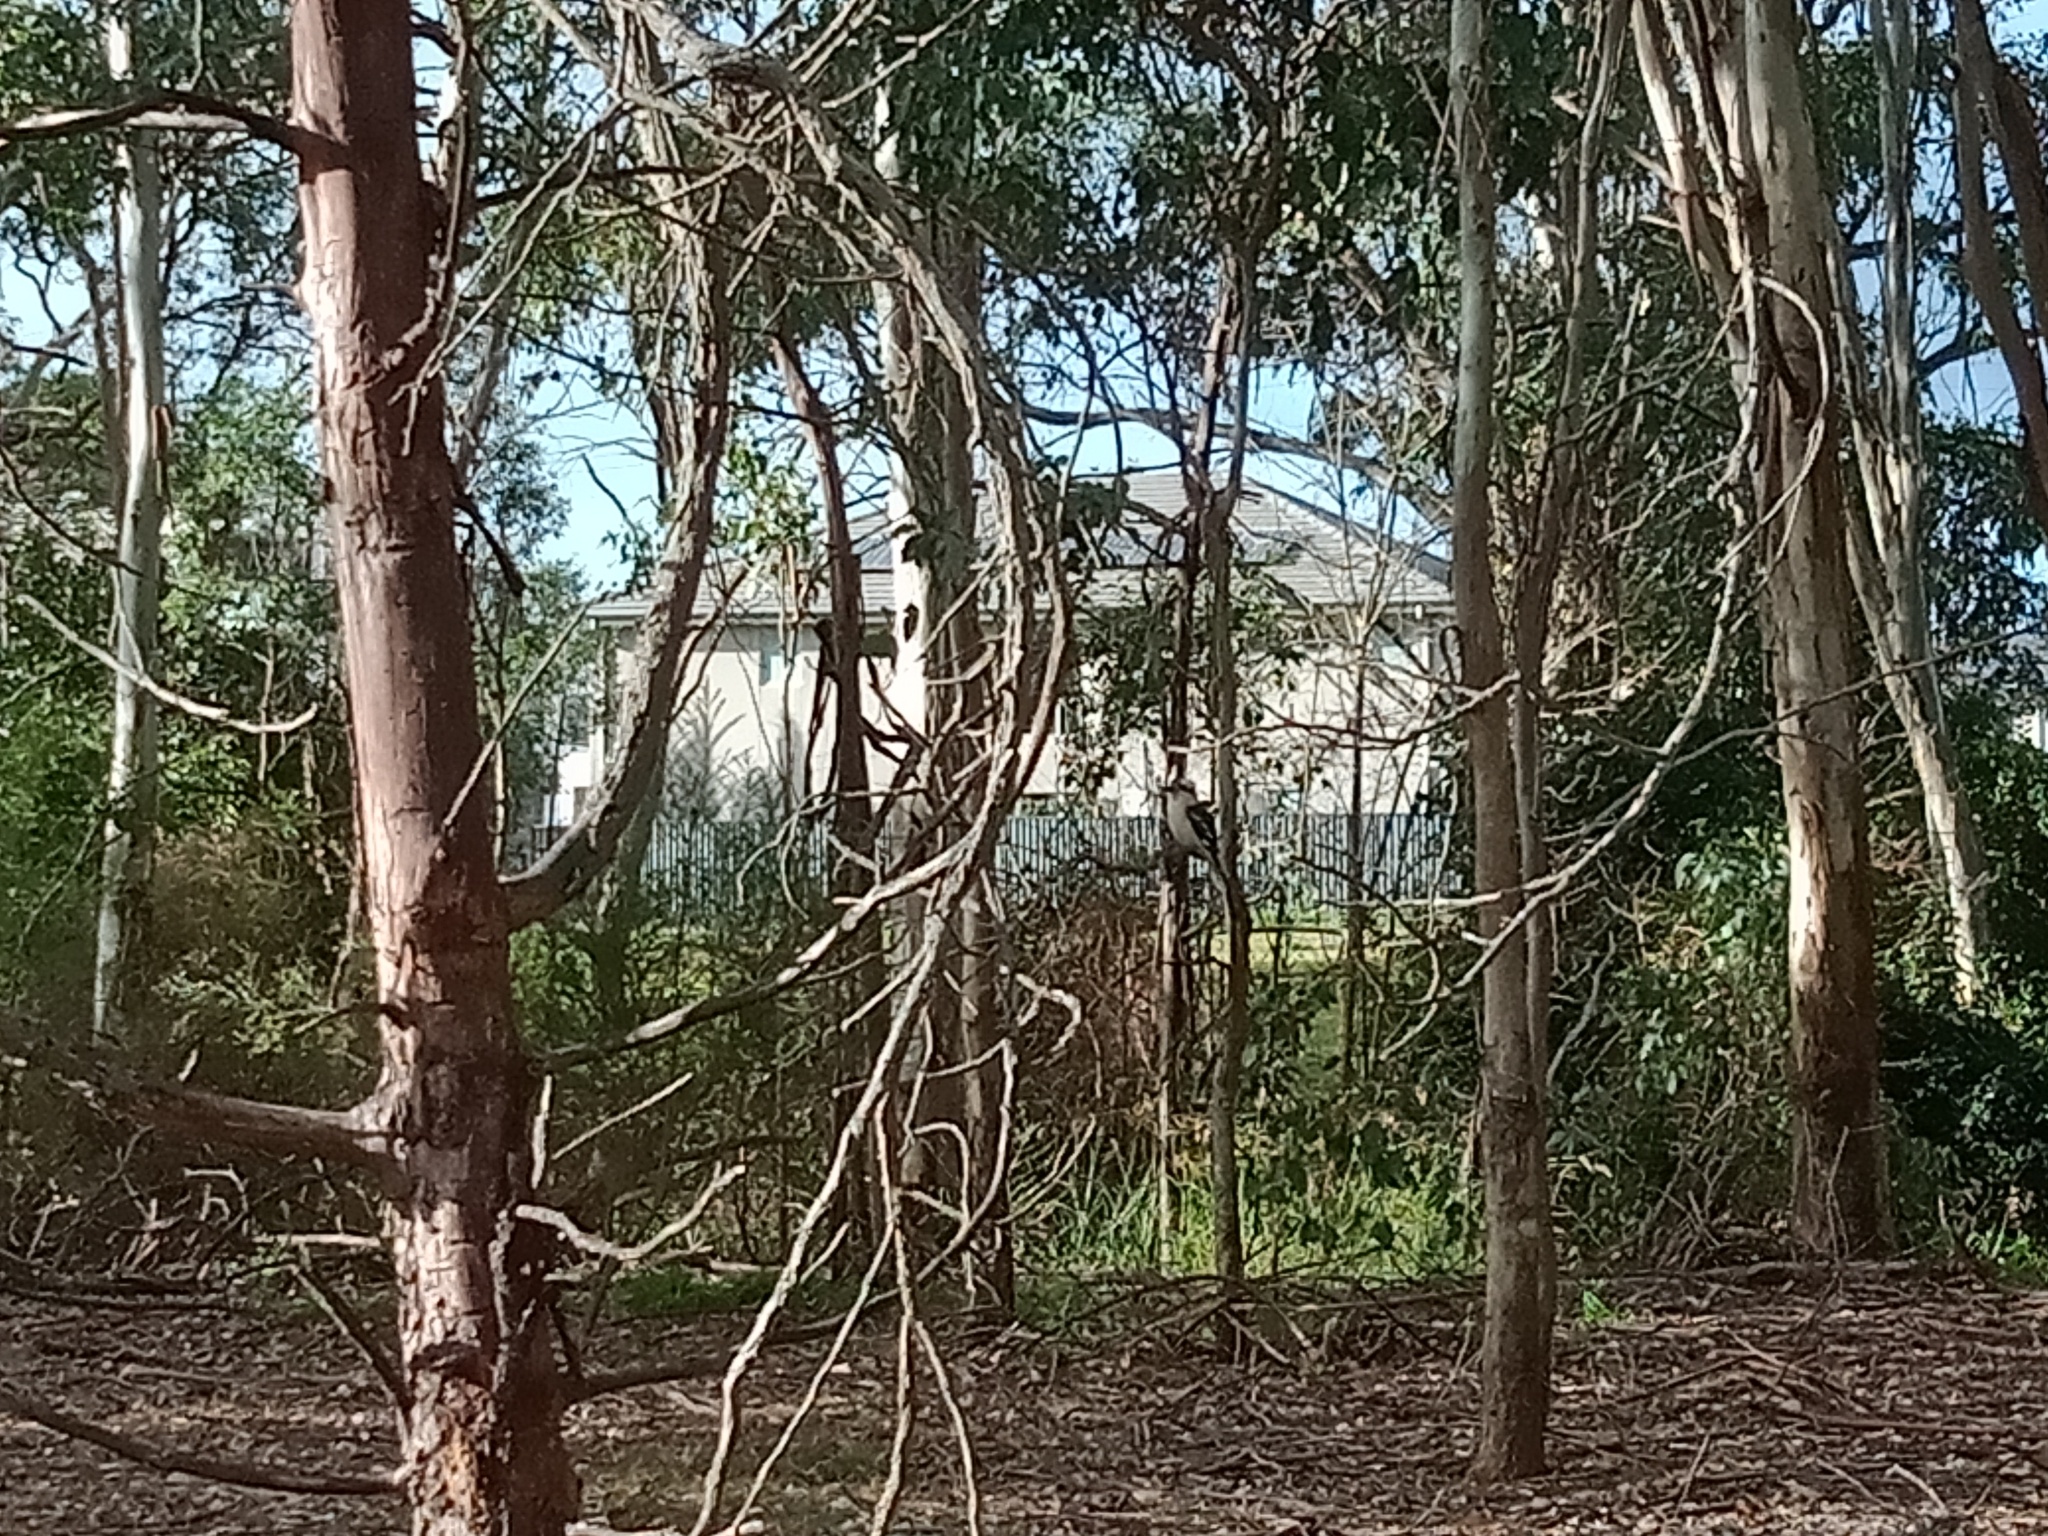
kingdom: Animalia
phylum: Chordata
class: Aves
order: Coraciiformes
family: Alcedinidae
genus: Dacelo
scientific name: Dacelo novaeguineae
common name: Laughing kookaburra
